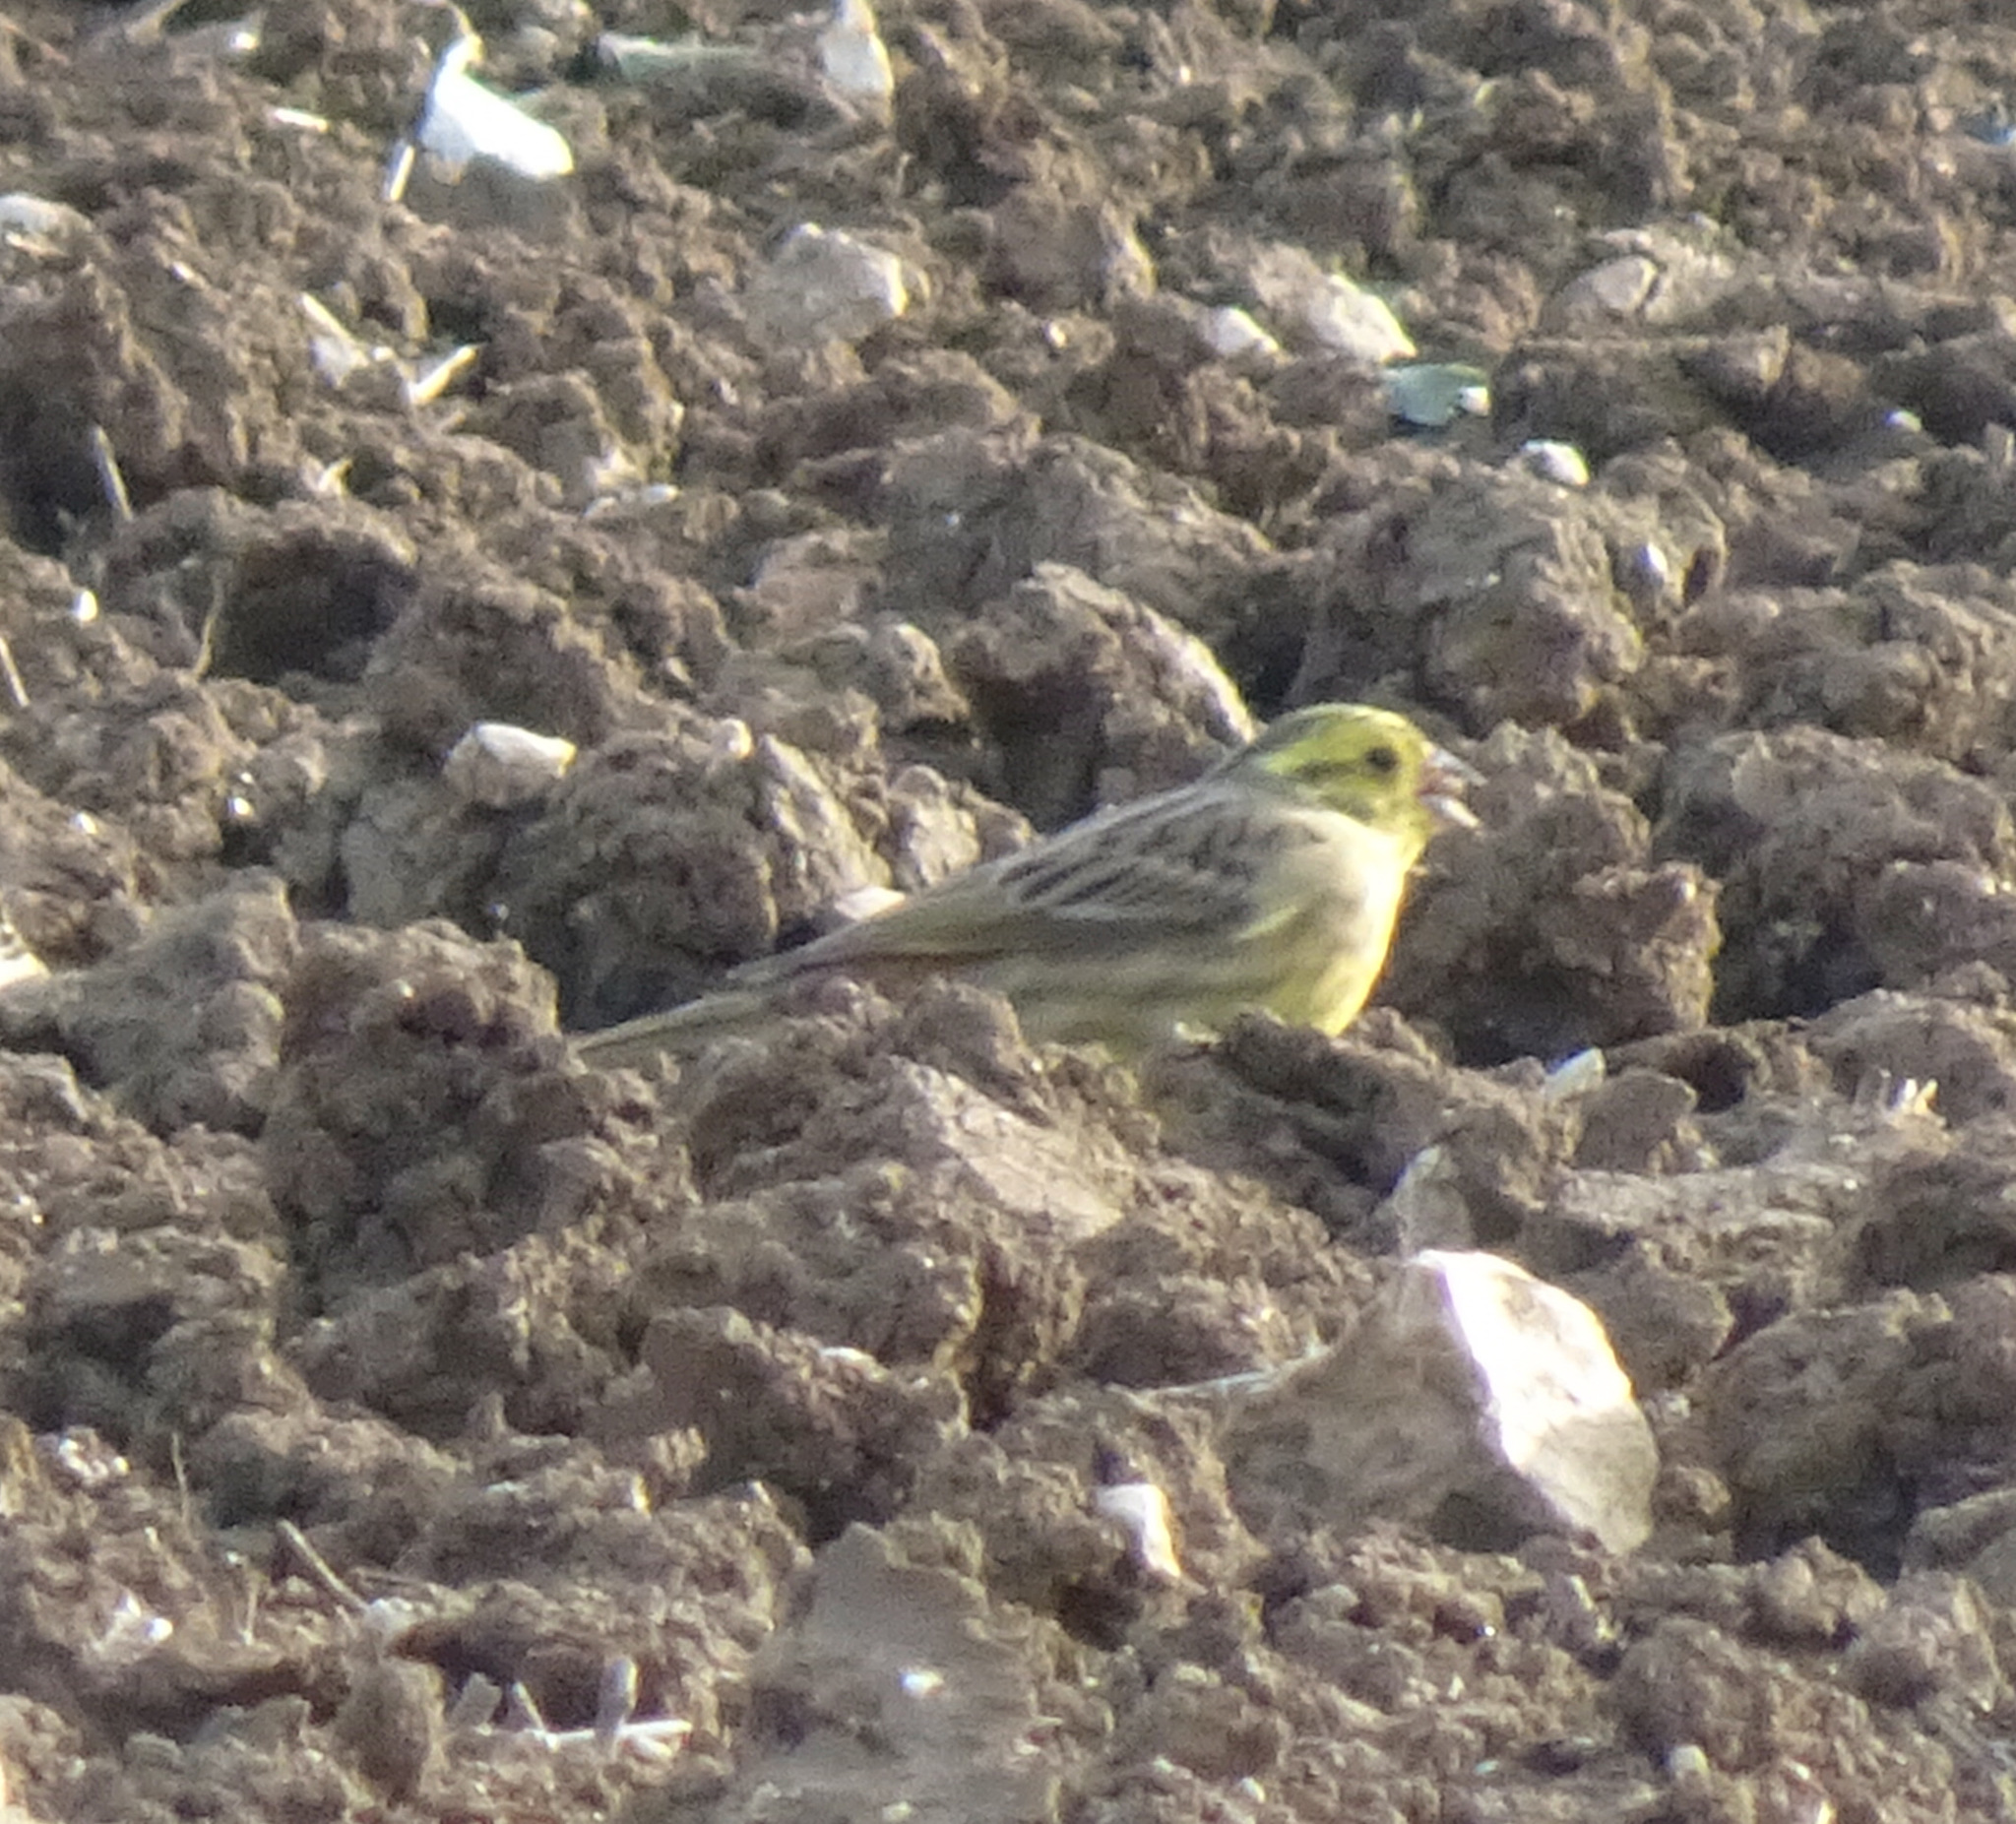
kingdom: Animalia
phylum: Chordata
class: Aves
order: Passeriformes
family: Emberizidae
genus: Emberiza
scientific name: Emberiza citrinella
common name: Yellowhammer
